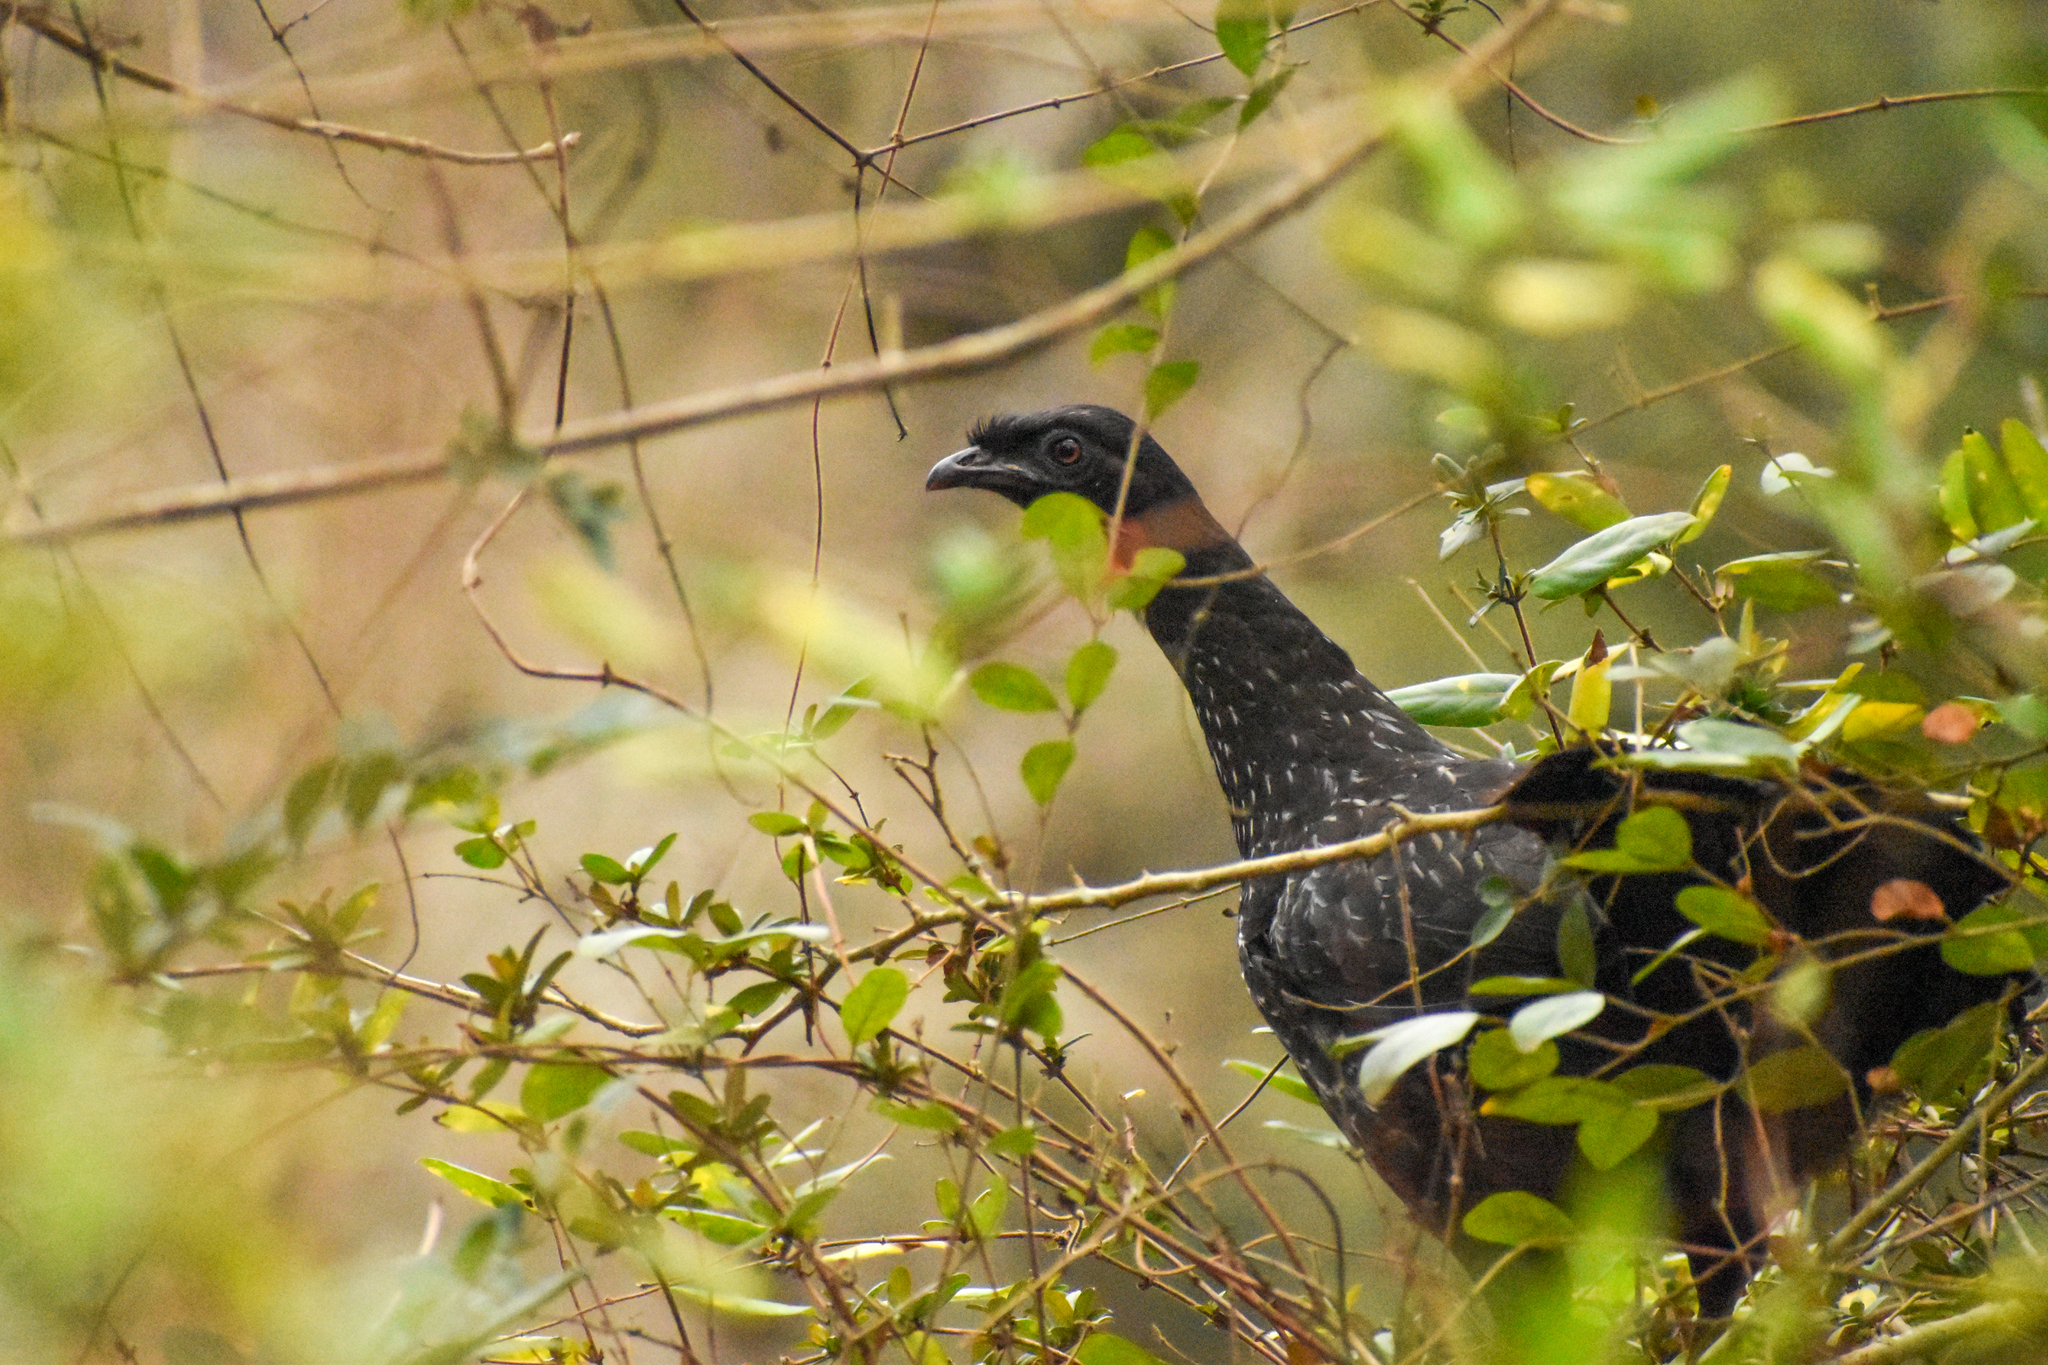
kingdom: Animalia
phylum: Chordata
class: Aves
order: Galliformes
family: Cracidae
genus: Penelope
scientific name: Penelope obscura
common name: Dusky-legged guan
